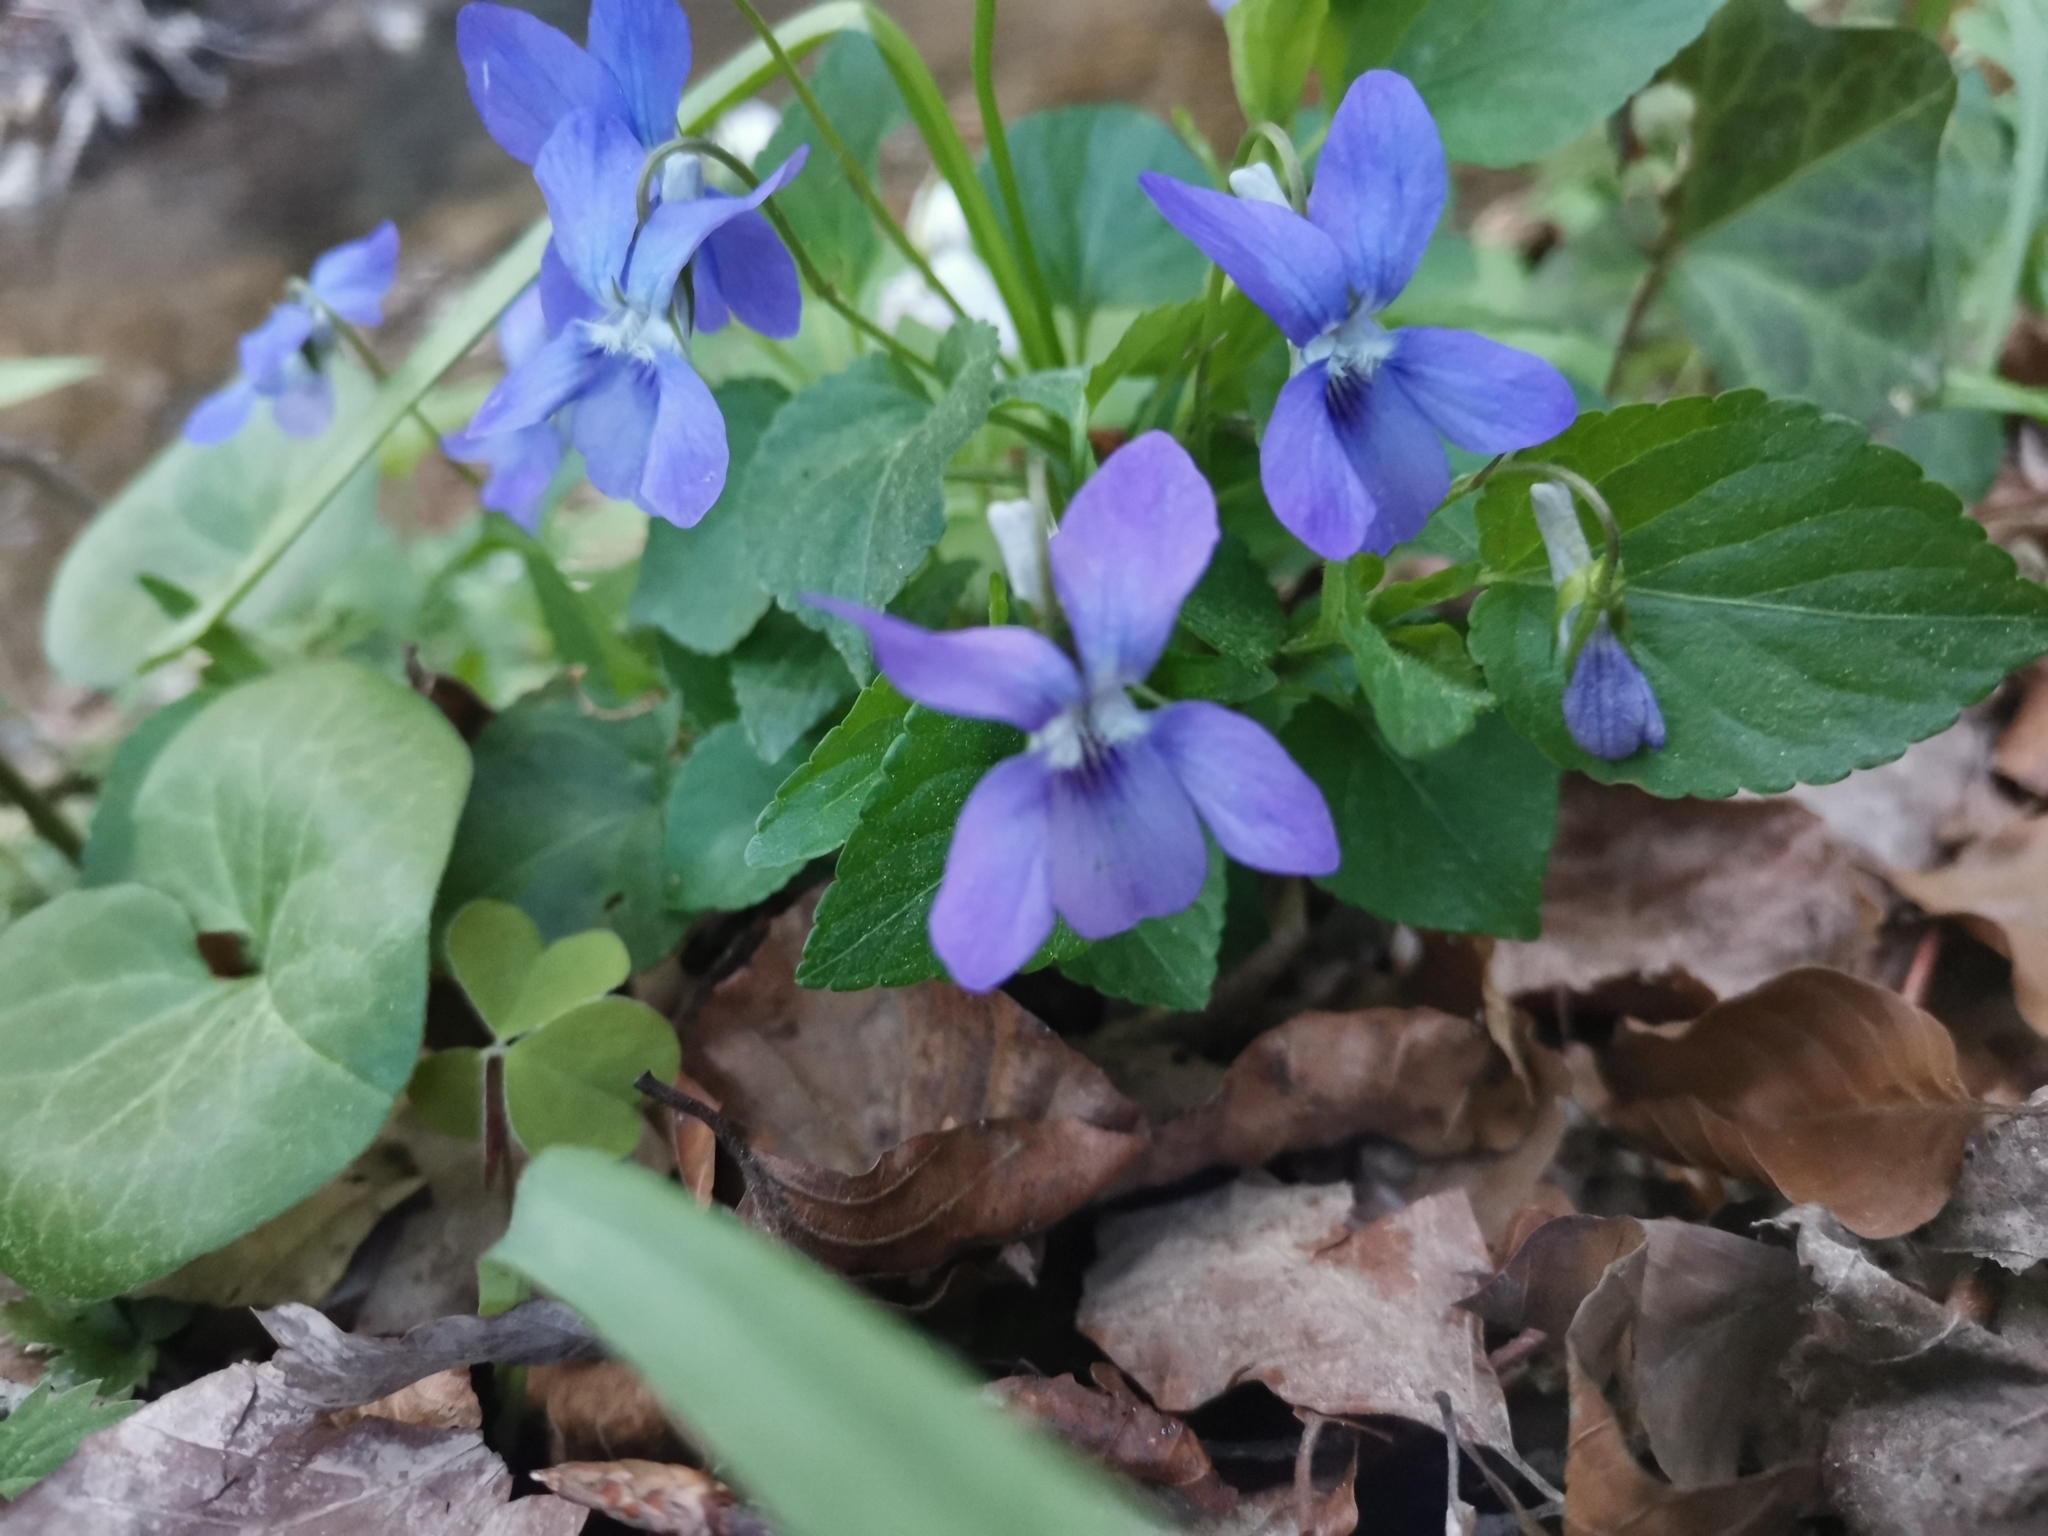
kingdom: Plantae
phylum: Tracheophyta
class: Magnoliopsida
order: Malpighiales
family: Violaceae
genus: Viola
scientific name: Viola canina
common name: Heath dog-violet
